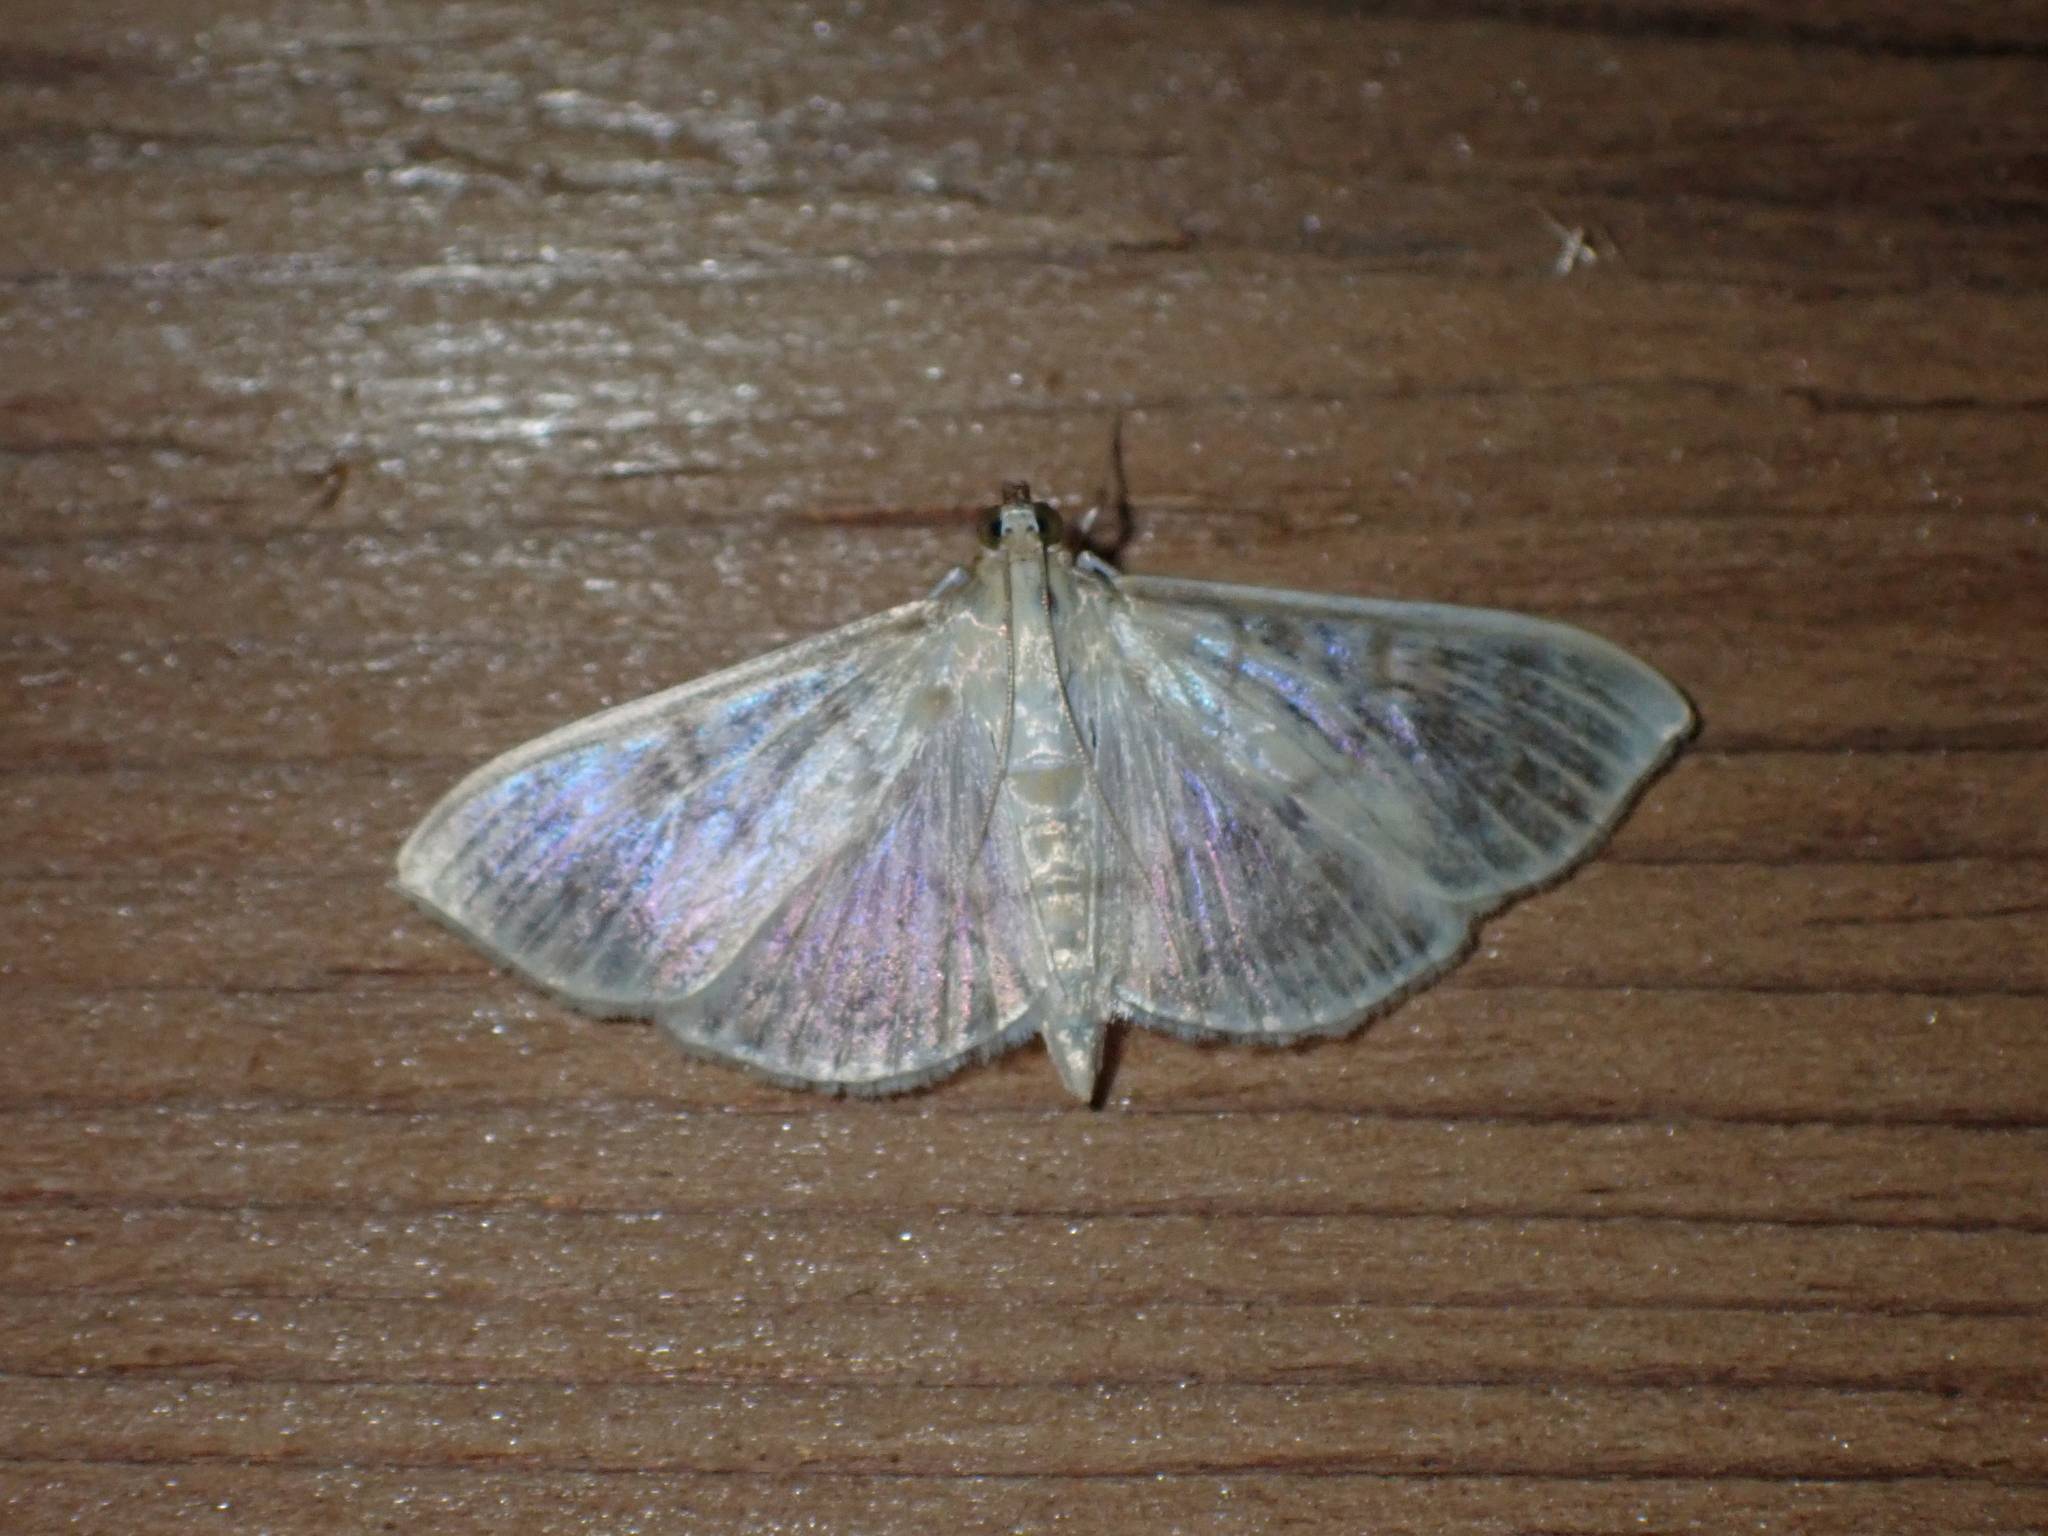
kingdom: Animalia
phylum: Arthropoda
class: Insecta
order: Lepidoptera
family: Crambidae
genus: Patania
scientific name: Patania ruralis
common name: Mother of pearl
